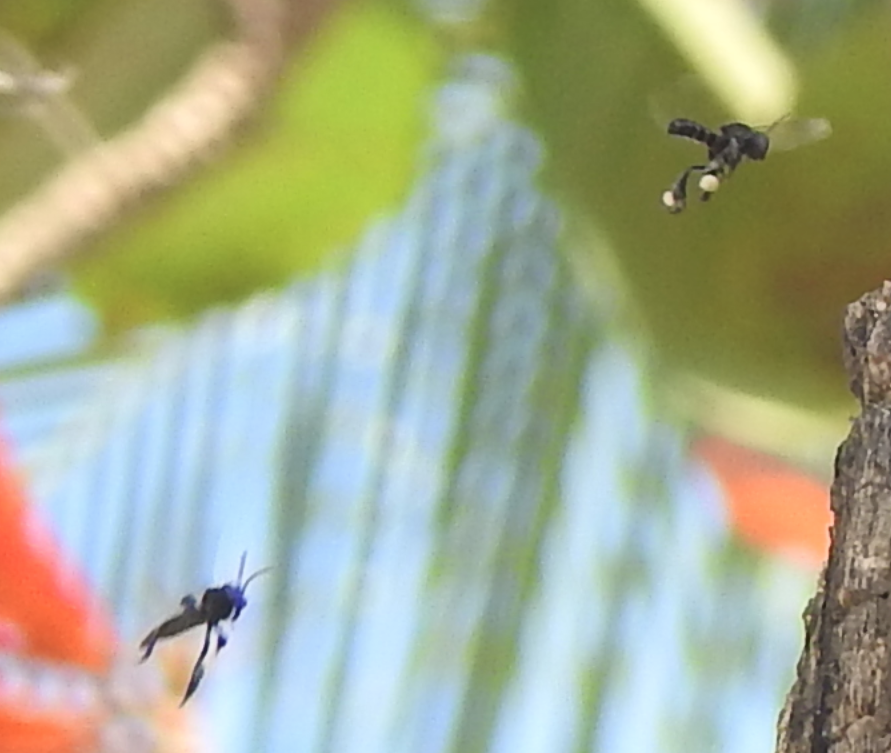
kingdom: Animalia
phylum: Arthropoda
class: Insecta
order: Hymenoptera
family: Apidae
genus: Frieseomelitta
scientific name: Frieseomelitta nigra
